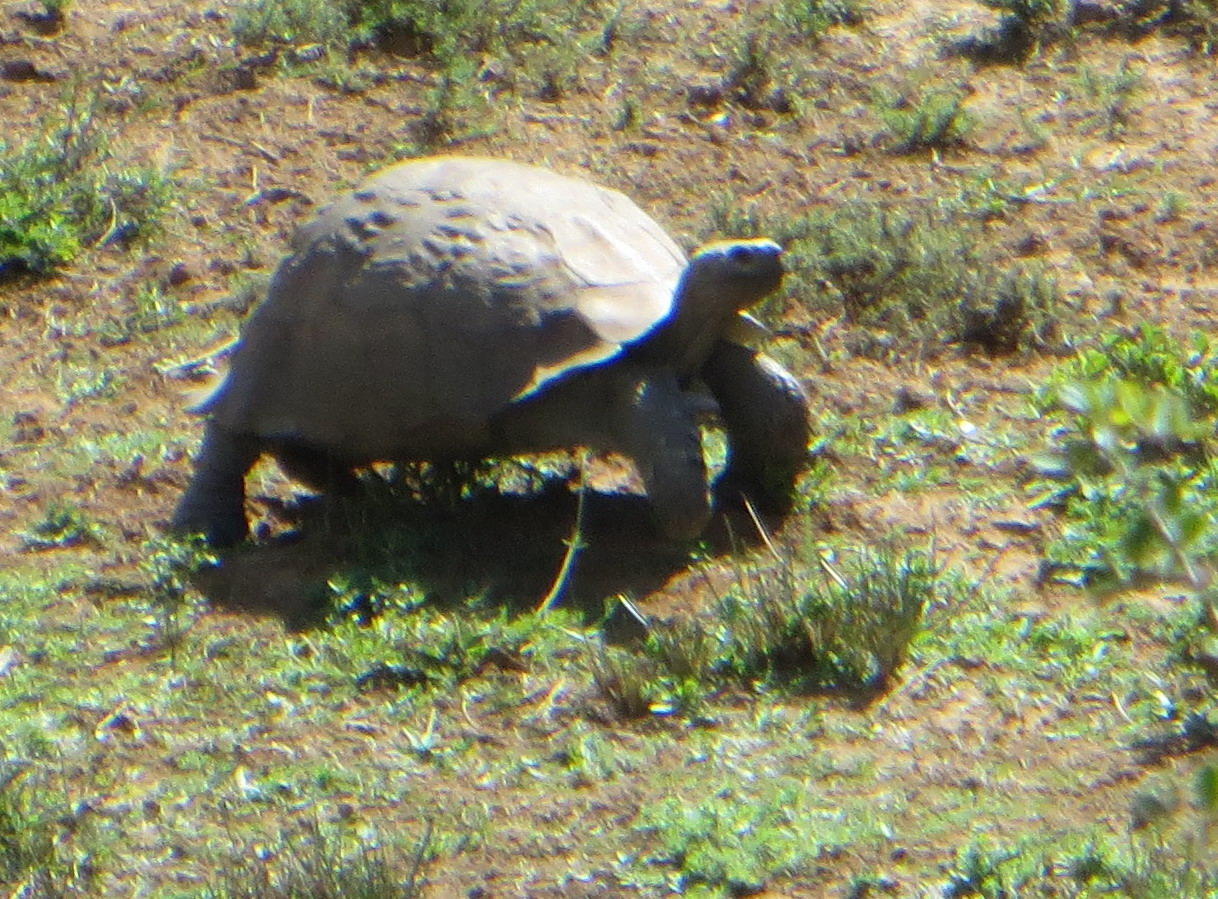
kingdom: Animalia
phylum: Chordata
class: Testudines
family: Testudinidae
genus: Stigmochelys
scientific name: Stigmochelys pardalis
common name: Leopard tortoise
